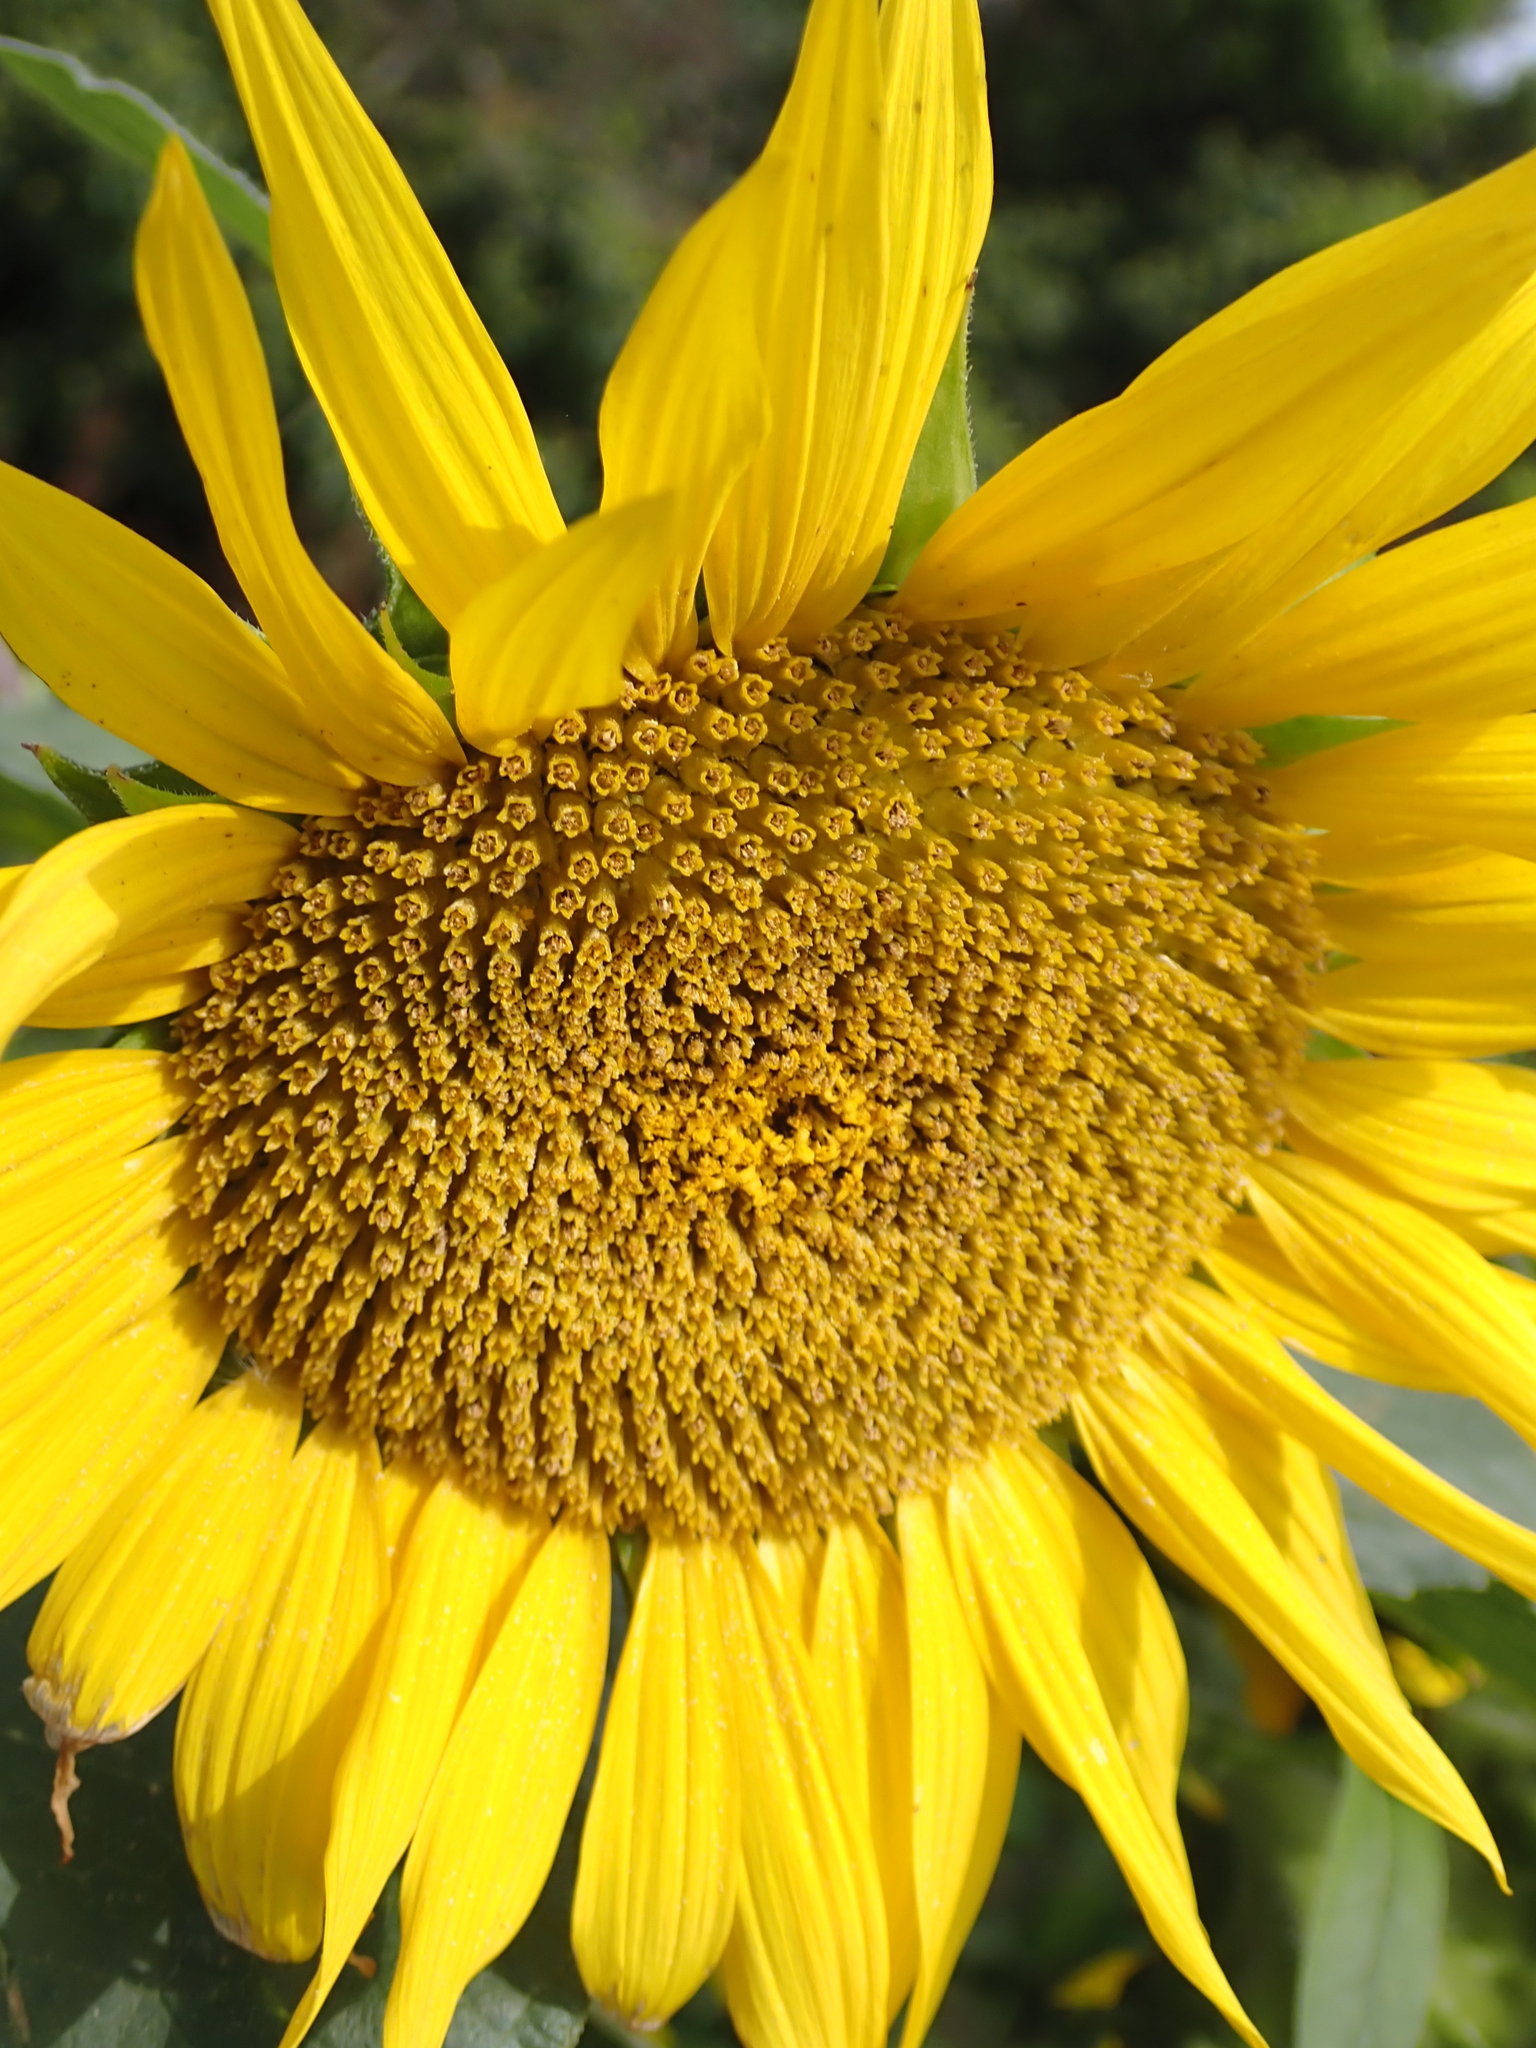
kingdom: Plantae
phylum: Tracheophyta
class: Magnoliopsida
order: Asterales
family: Asteraceae
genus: Helianthus
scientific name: Helianthus annuus
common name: Sunflower
